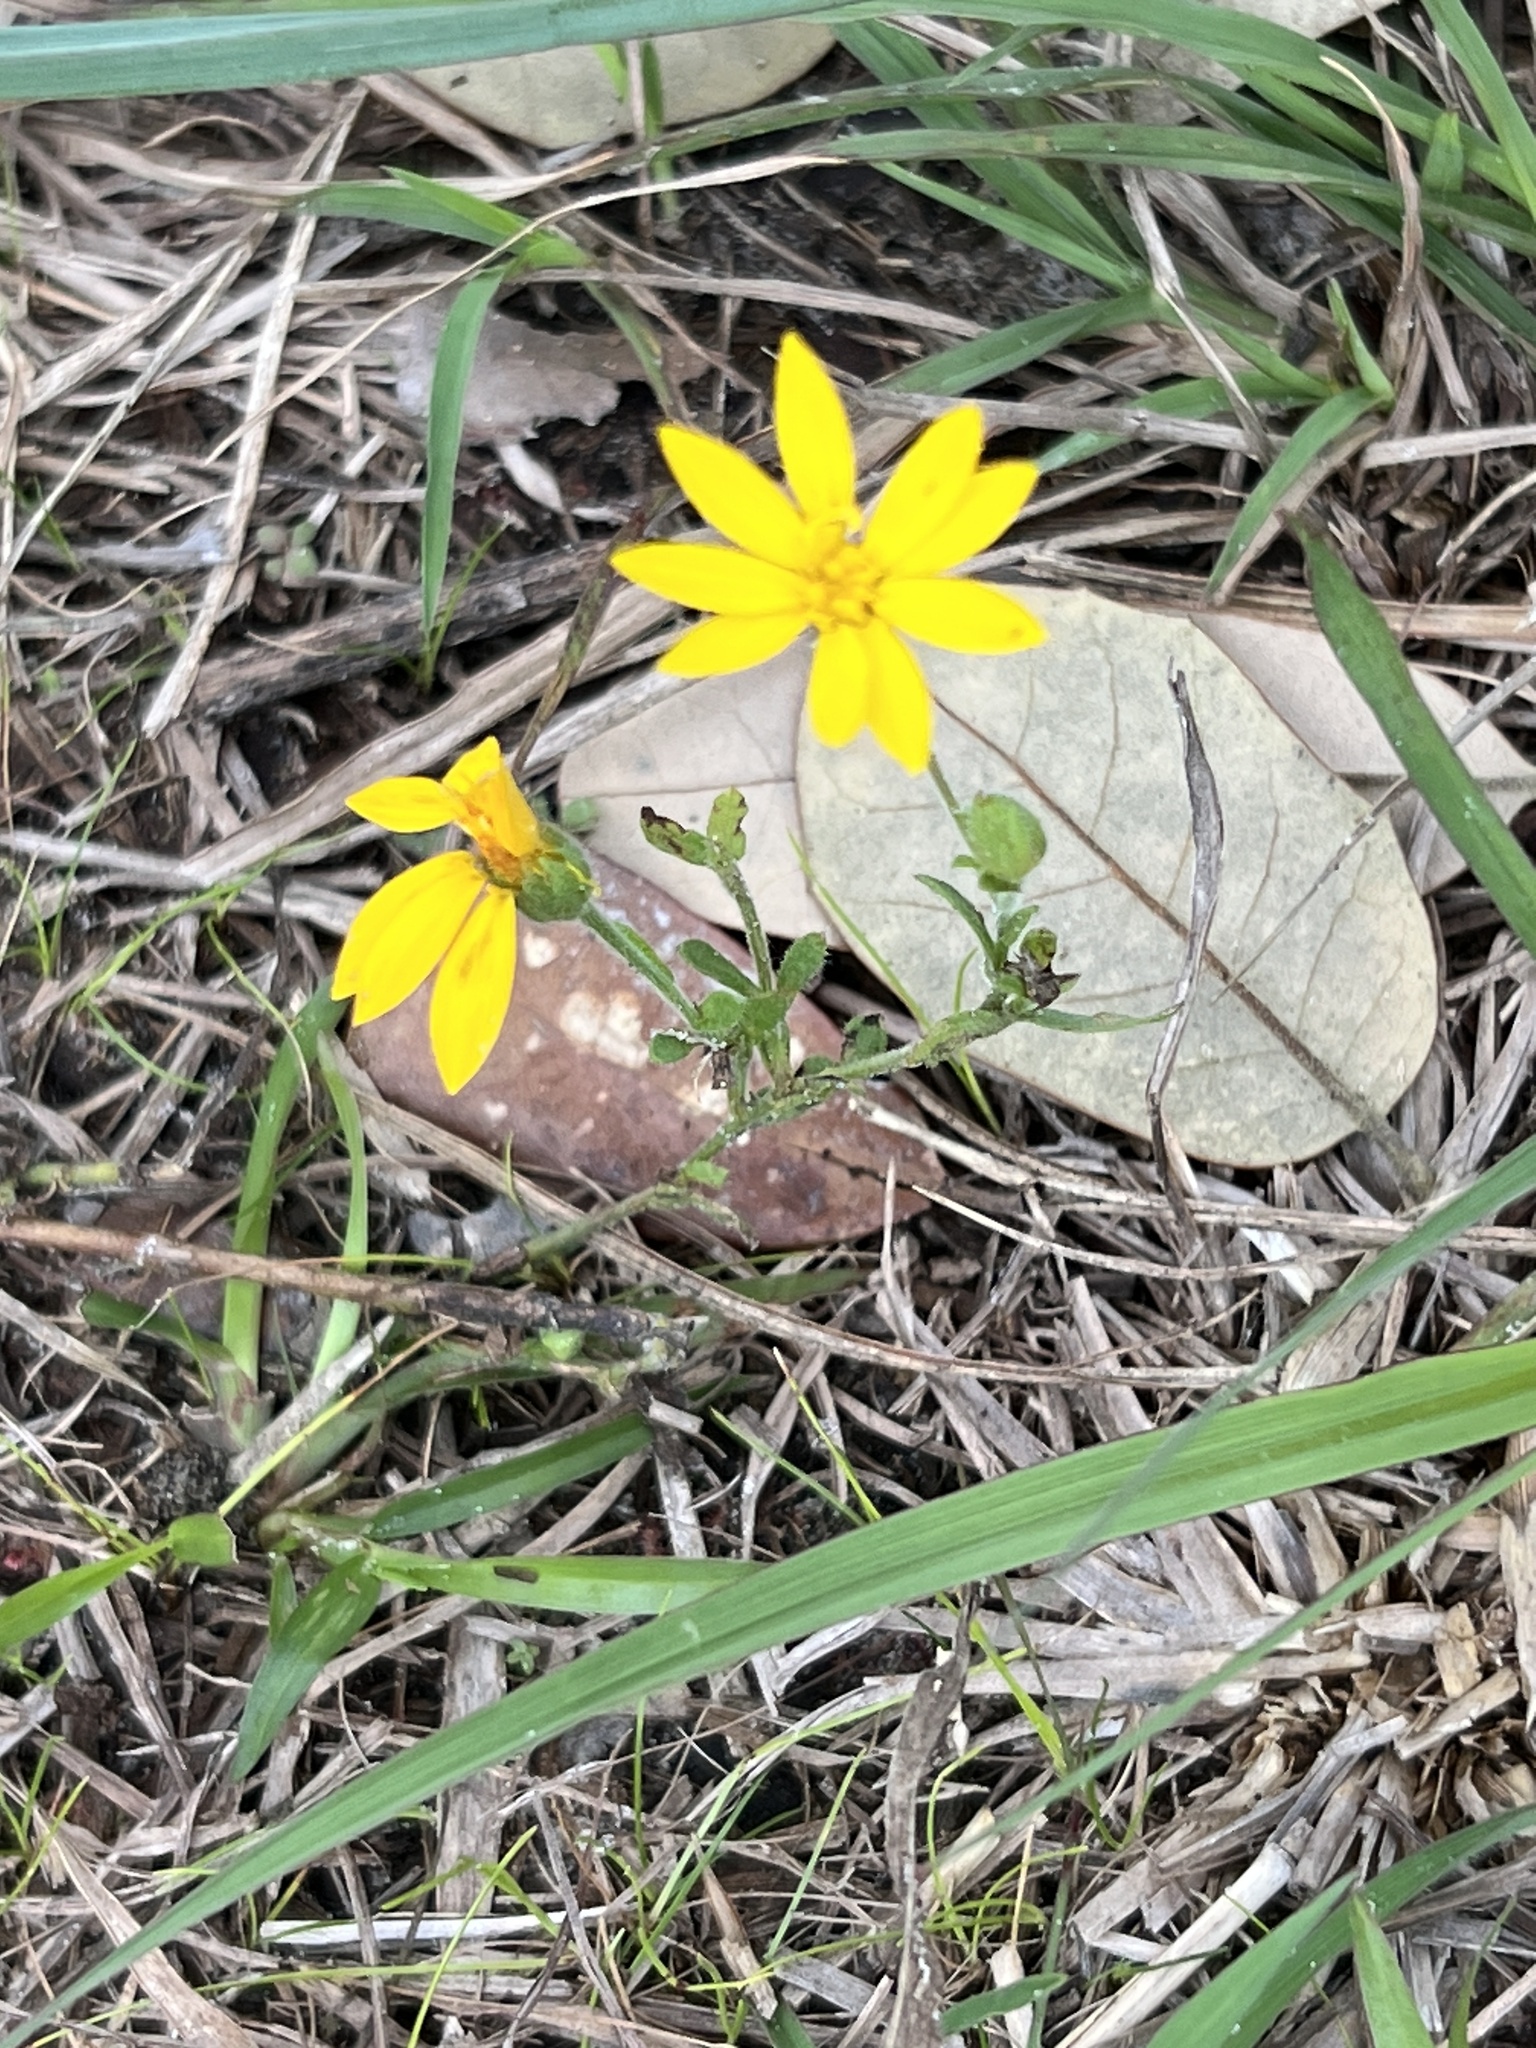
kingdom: Plantae
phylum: Tracheophyta
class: Magnoliopsida
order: Asterales
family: Asteraceae
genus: Engelmannia
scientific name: Engelmannia peristenia
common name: Engelmann's daisy
